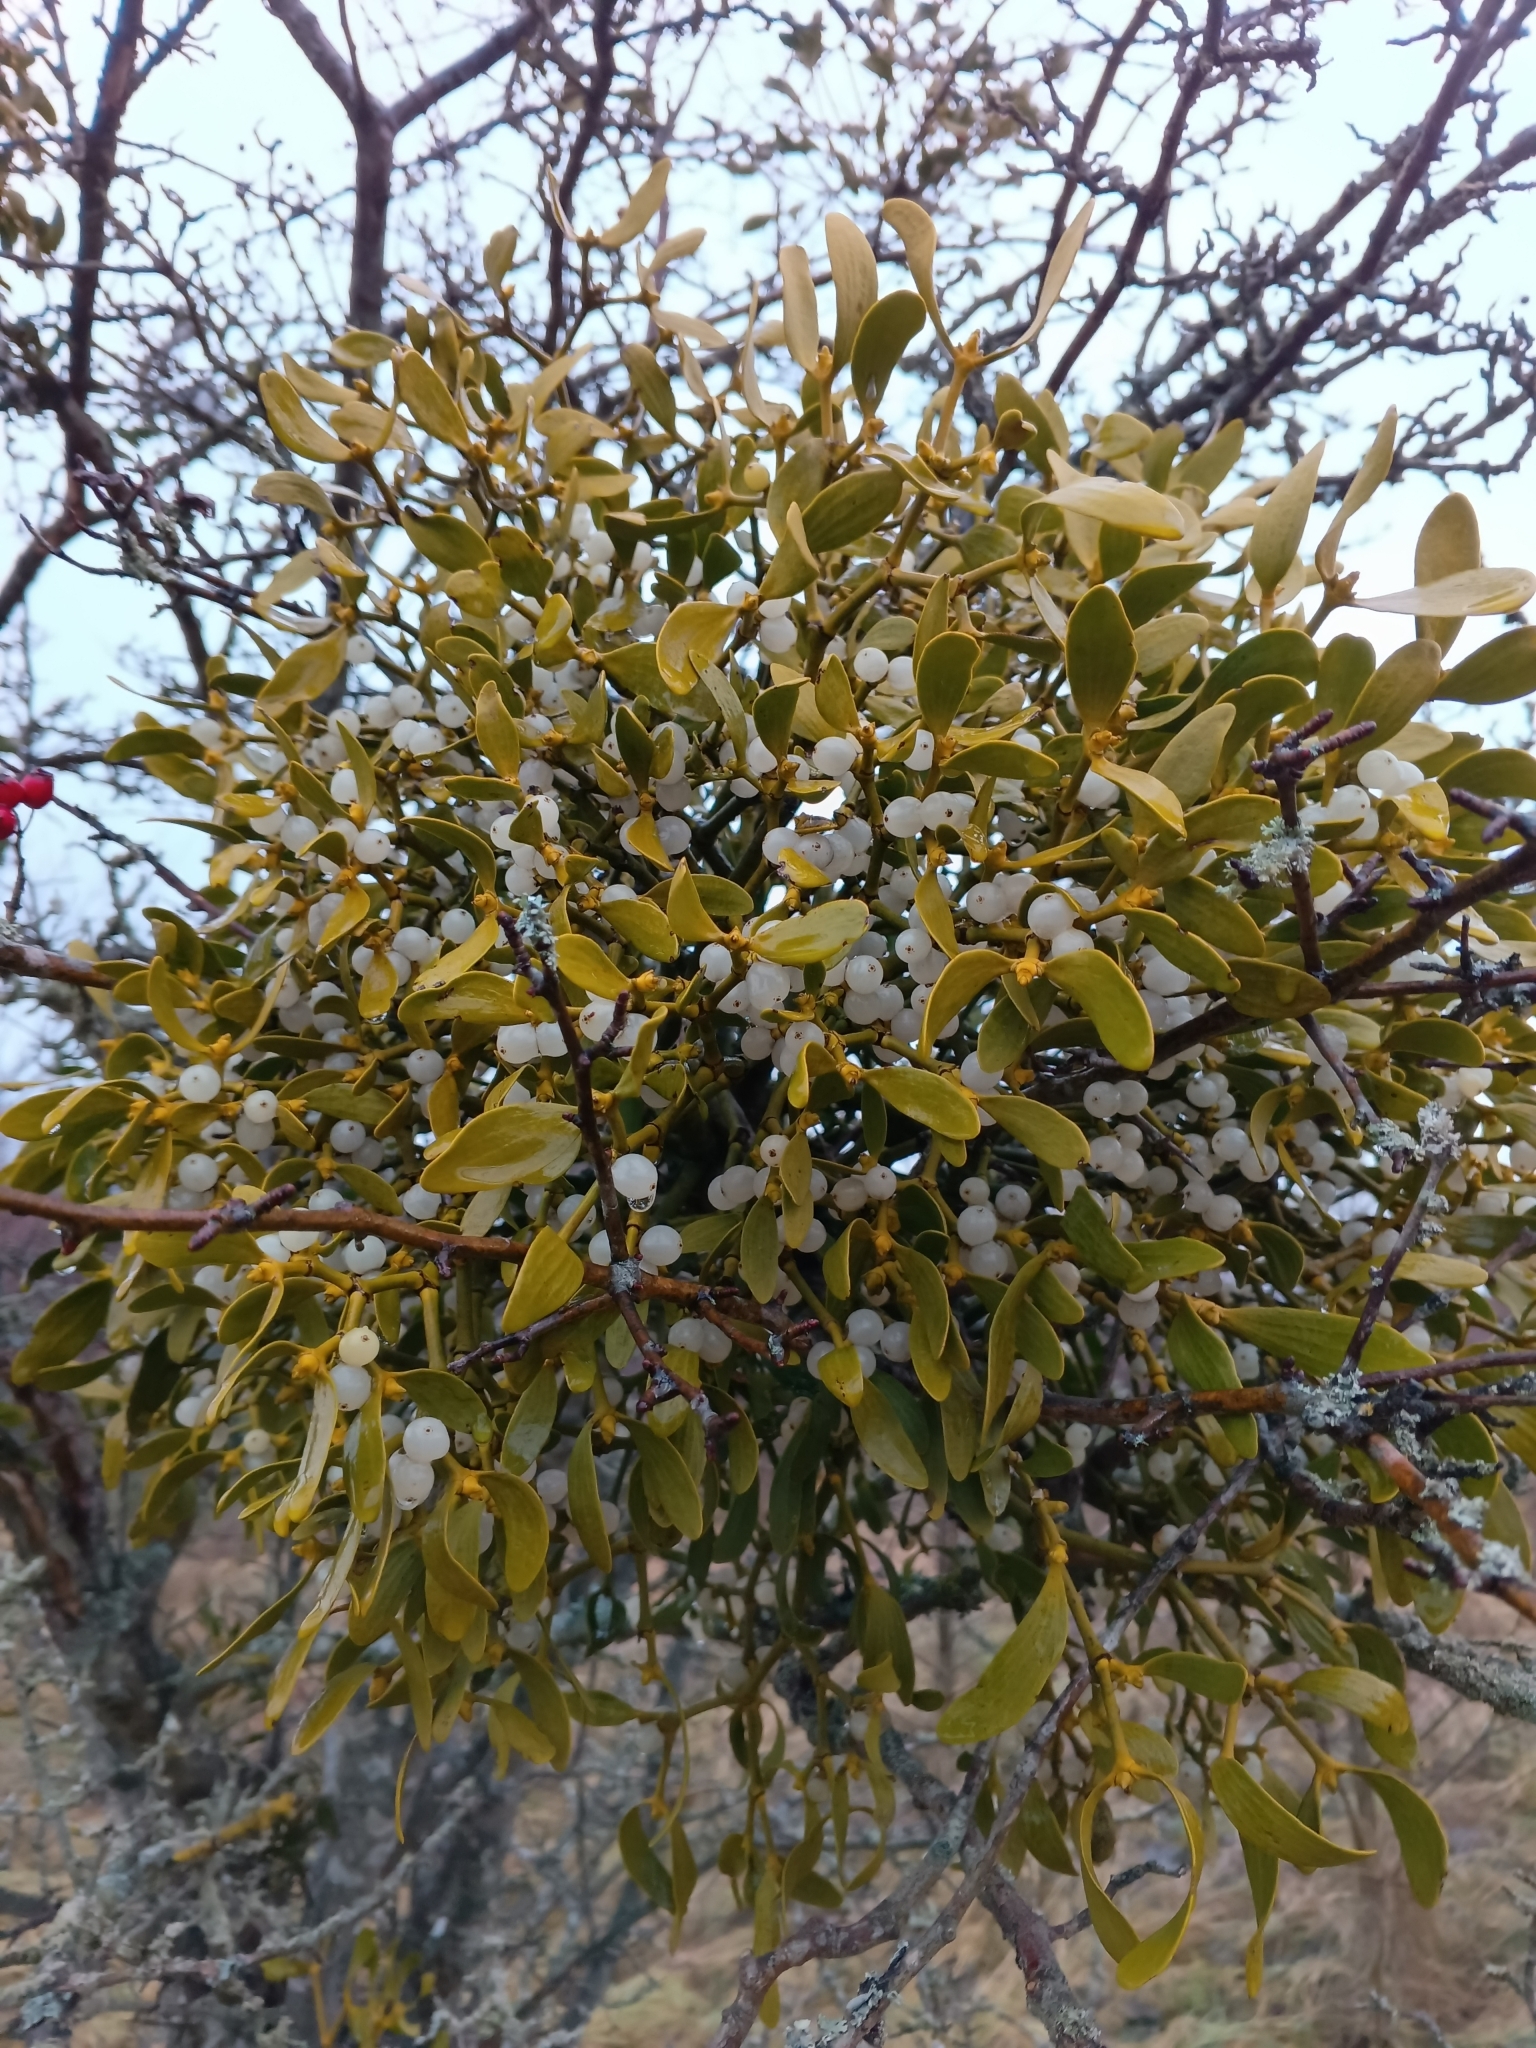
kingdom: Plantae
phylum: Tracheophyta
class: Magnoliopsida
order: Santalales
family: Viscaceae
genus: Viscum
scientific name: Viscum album
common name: Mistletoe
